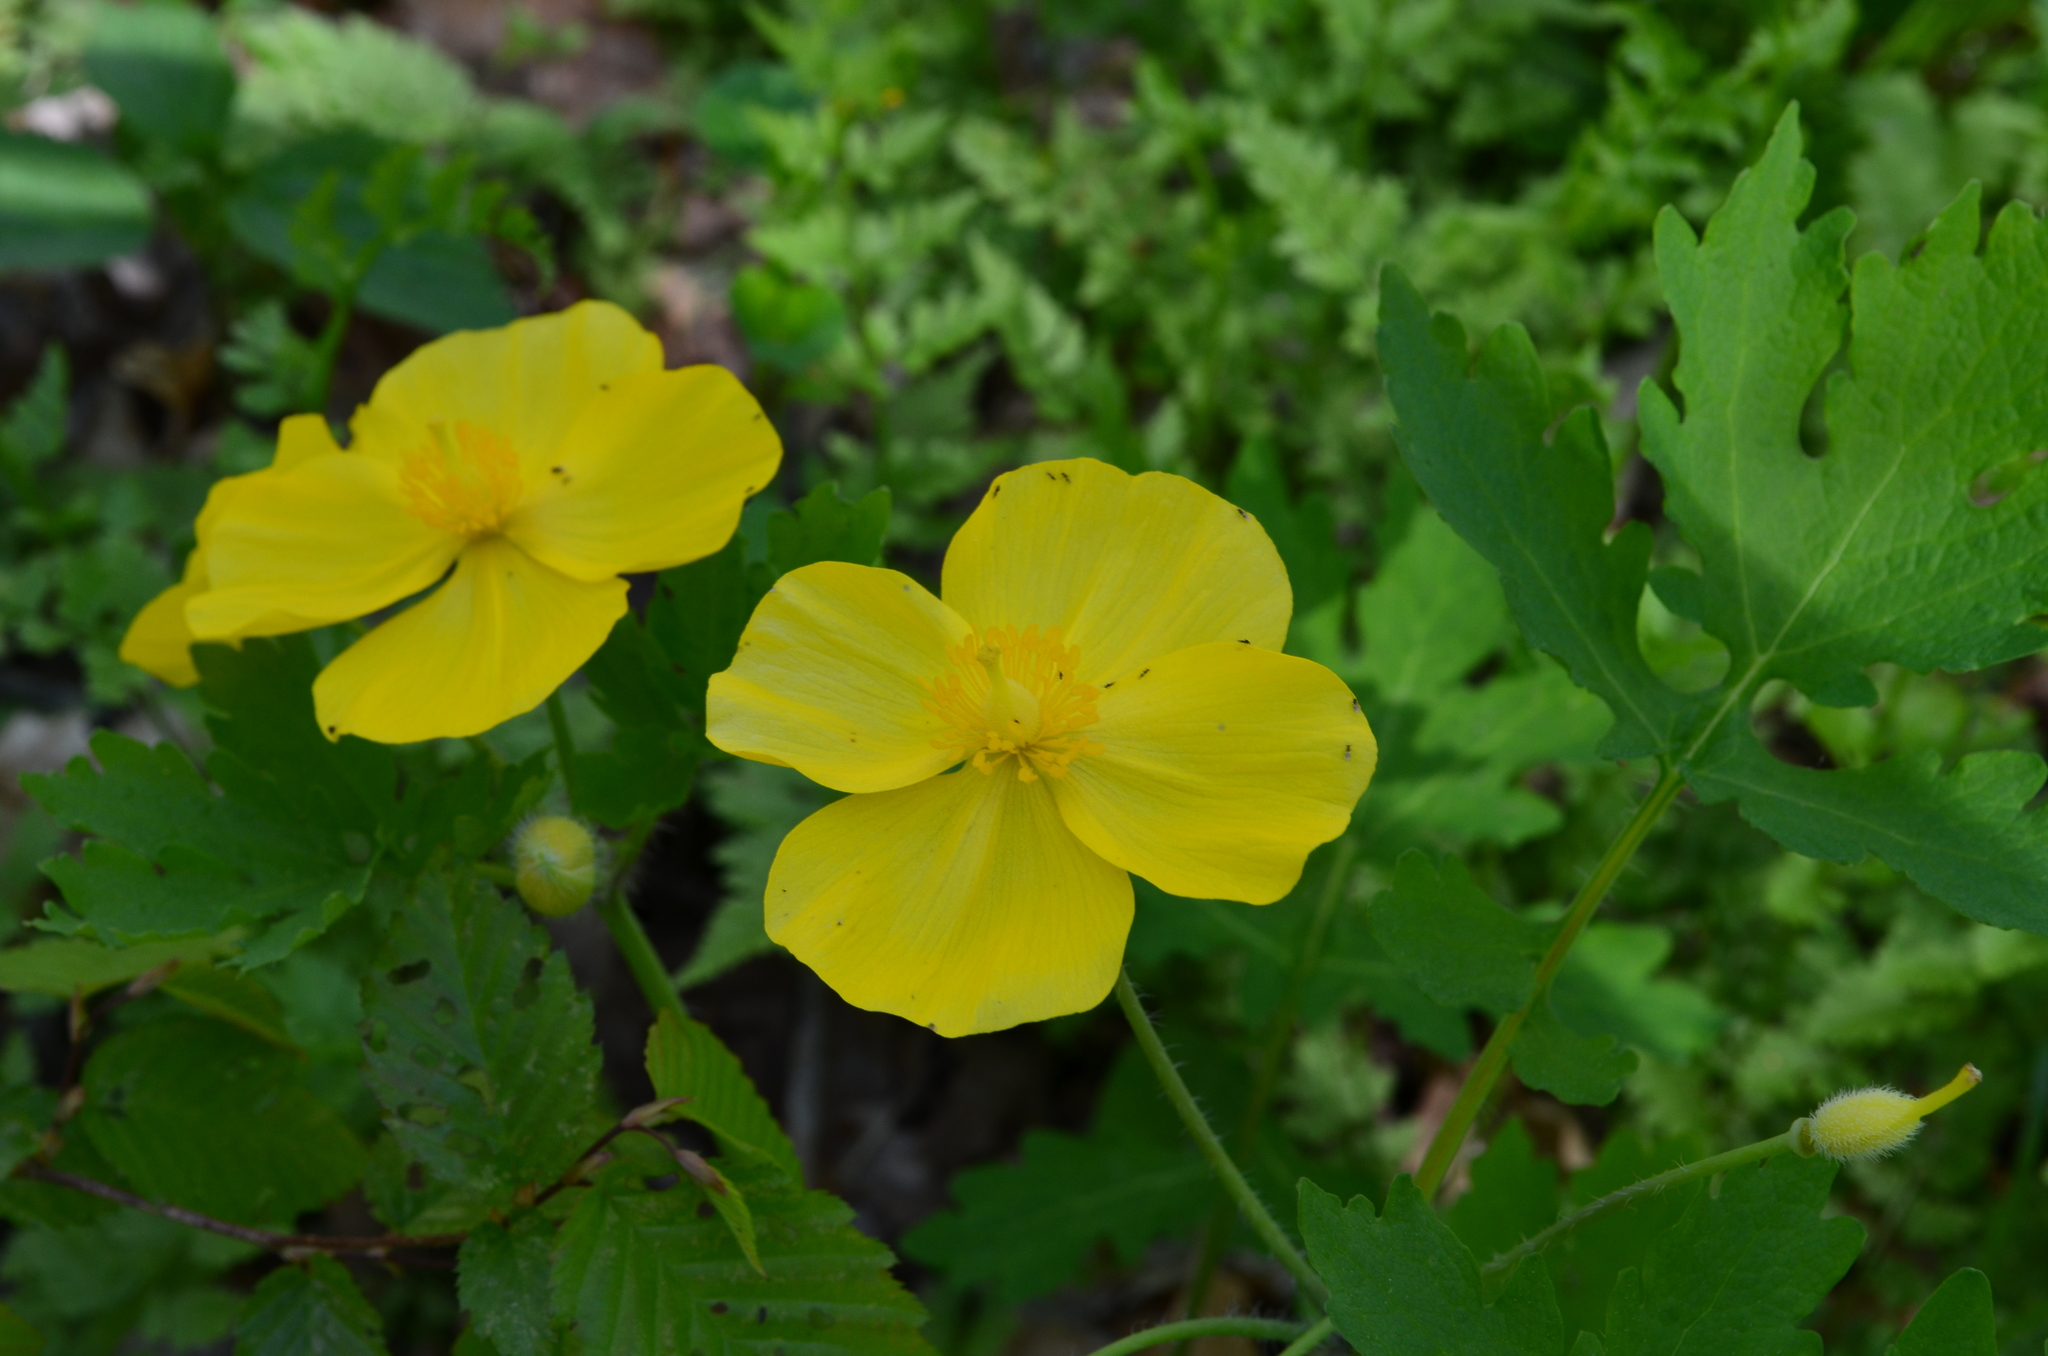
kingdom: Plantae
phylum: Tracheophyta
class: Magnoliopsida
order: Ranunculales
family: Papaveraceae
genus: Stylophorum
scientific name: Stylophorum diphyllum
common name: Celandine poppy
